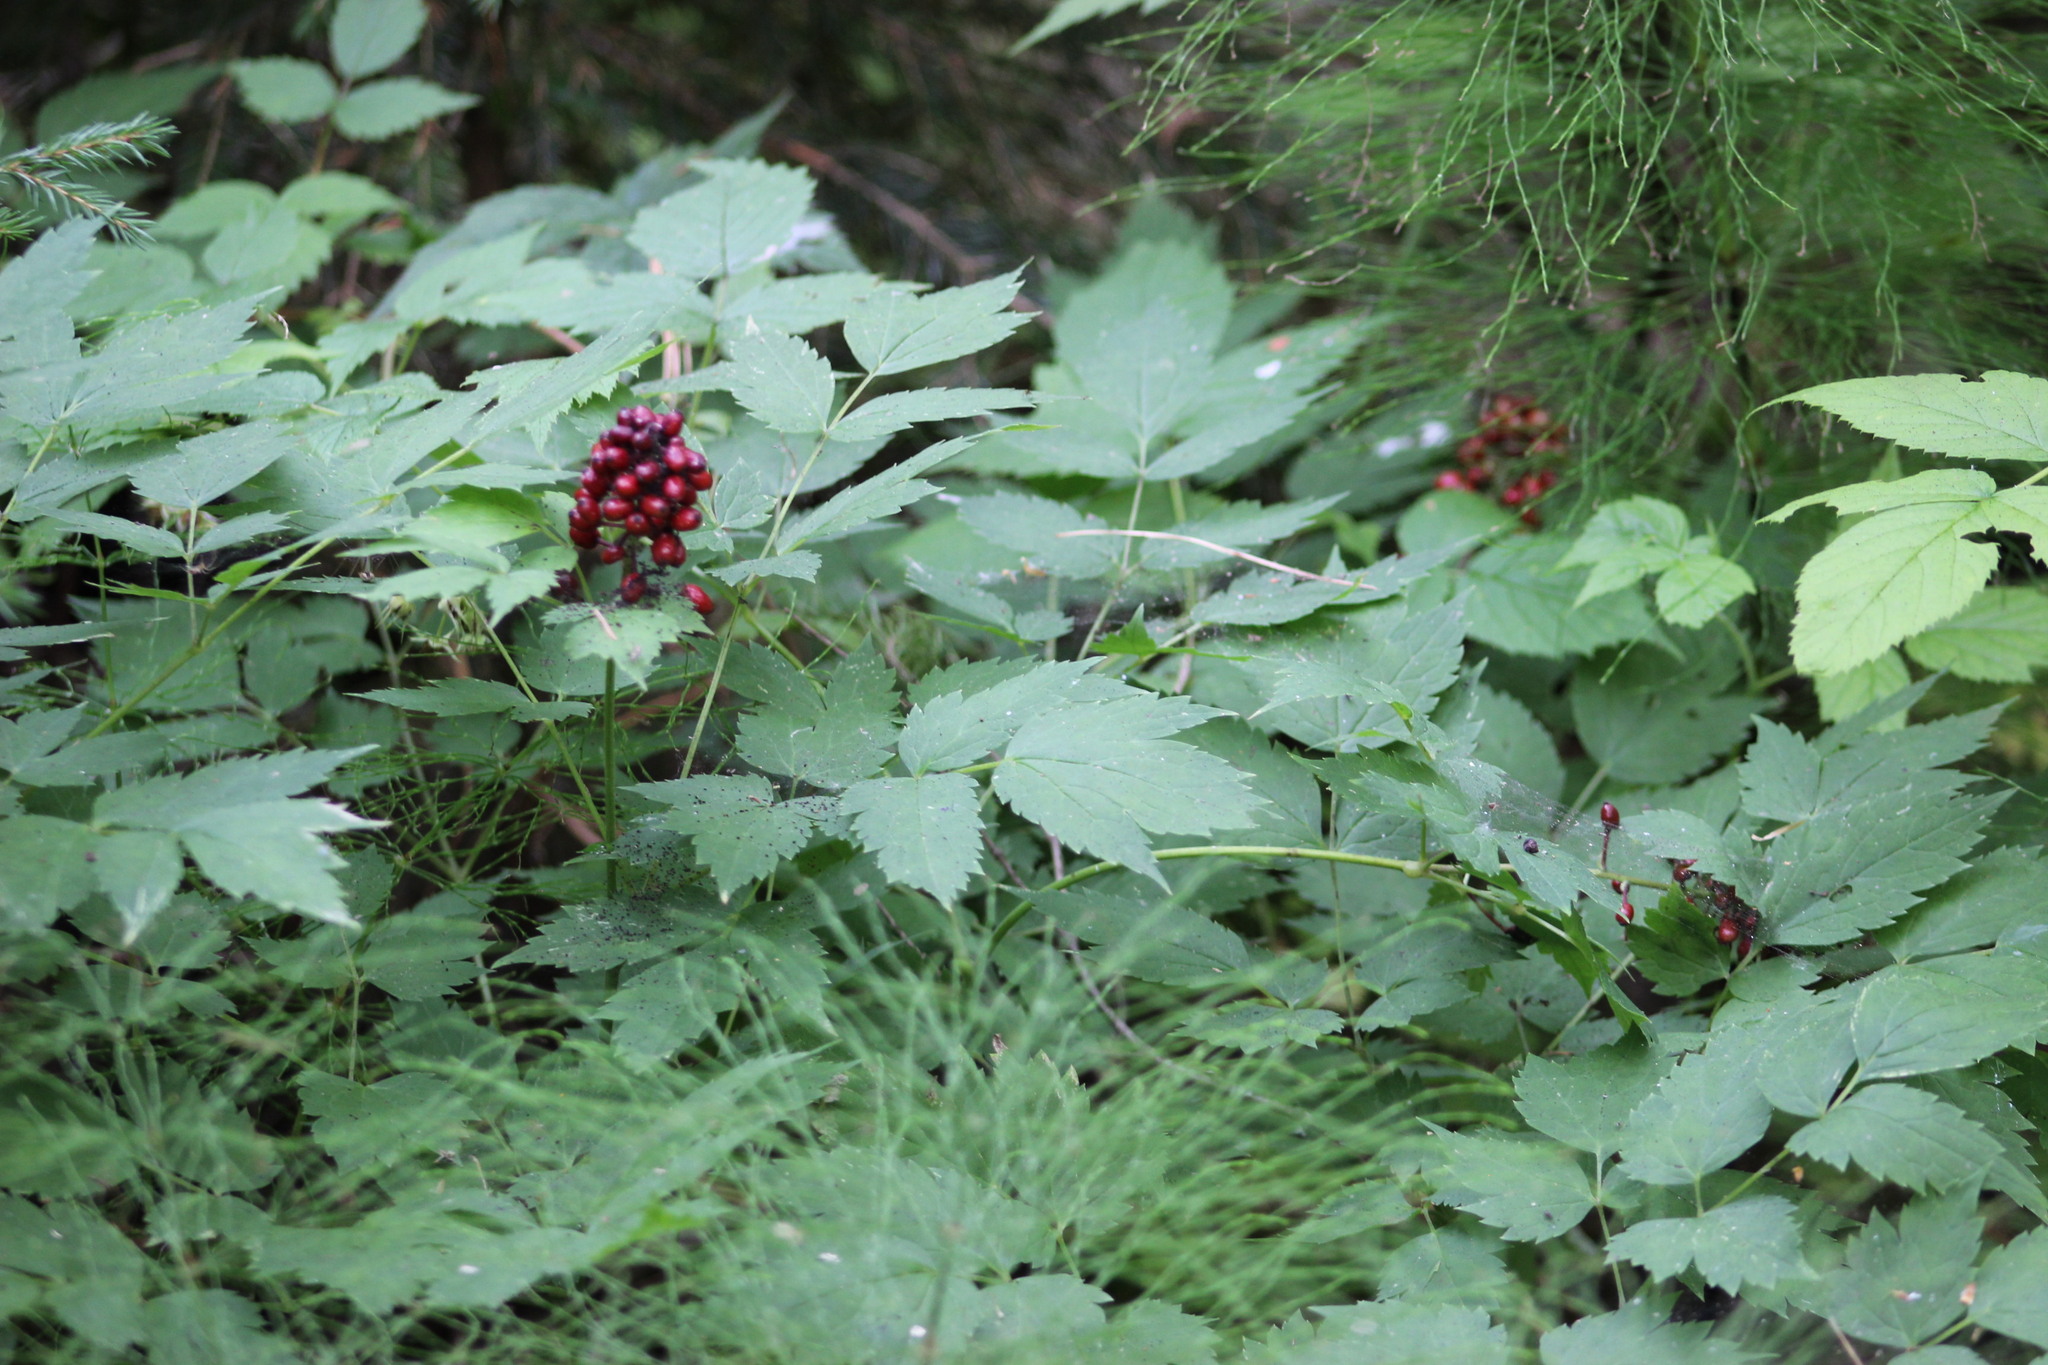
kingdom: Plantae
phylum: Tracheophyta
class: Magnoliopsida
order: Ranunculales
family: Ranunculaceae
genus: Actaea
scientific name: Actaea erythrocarpa
